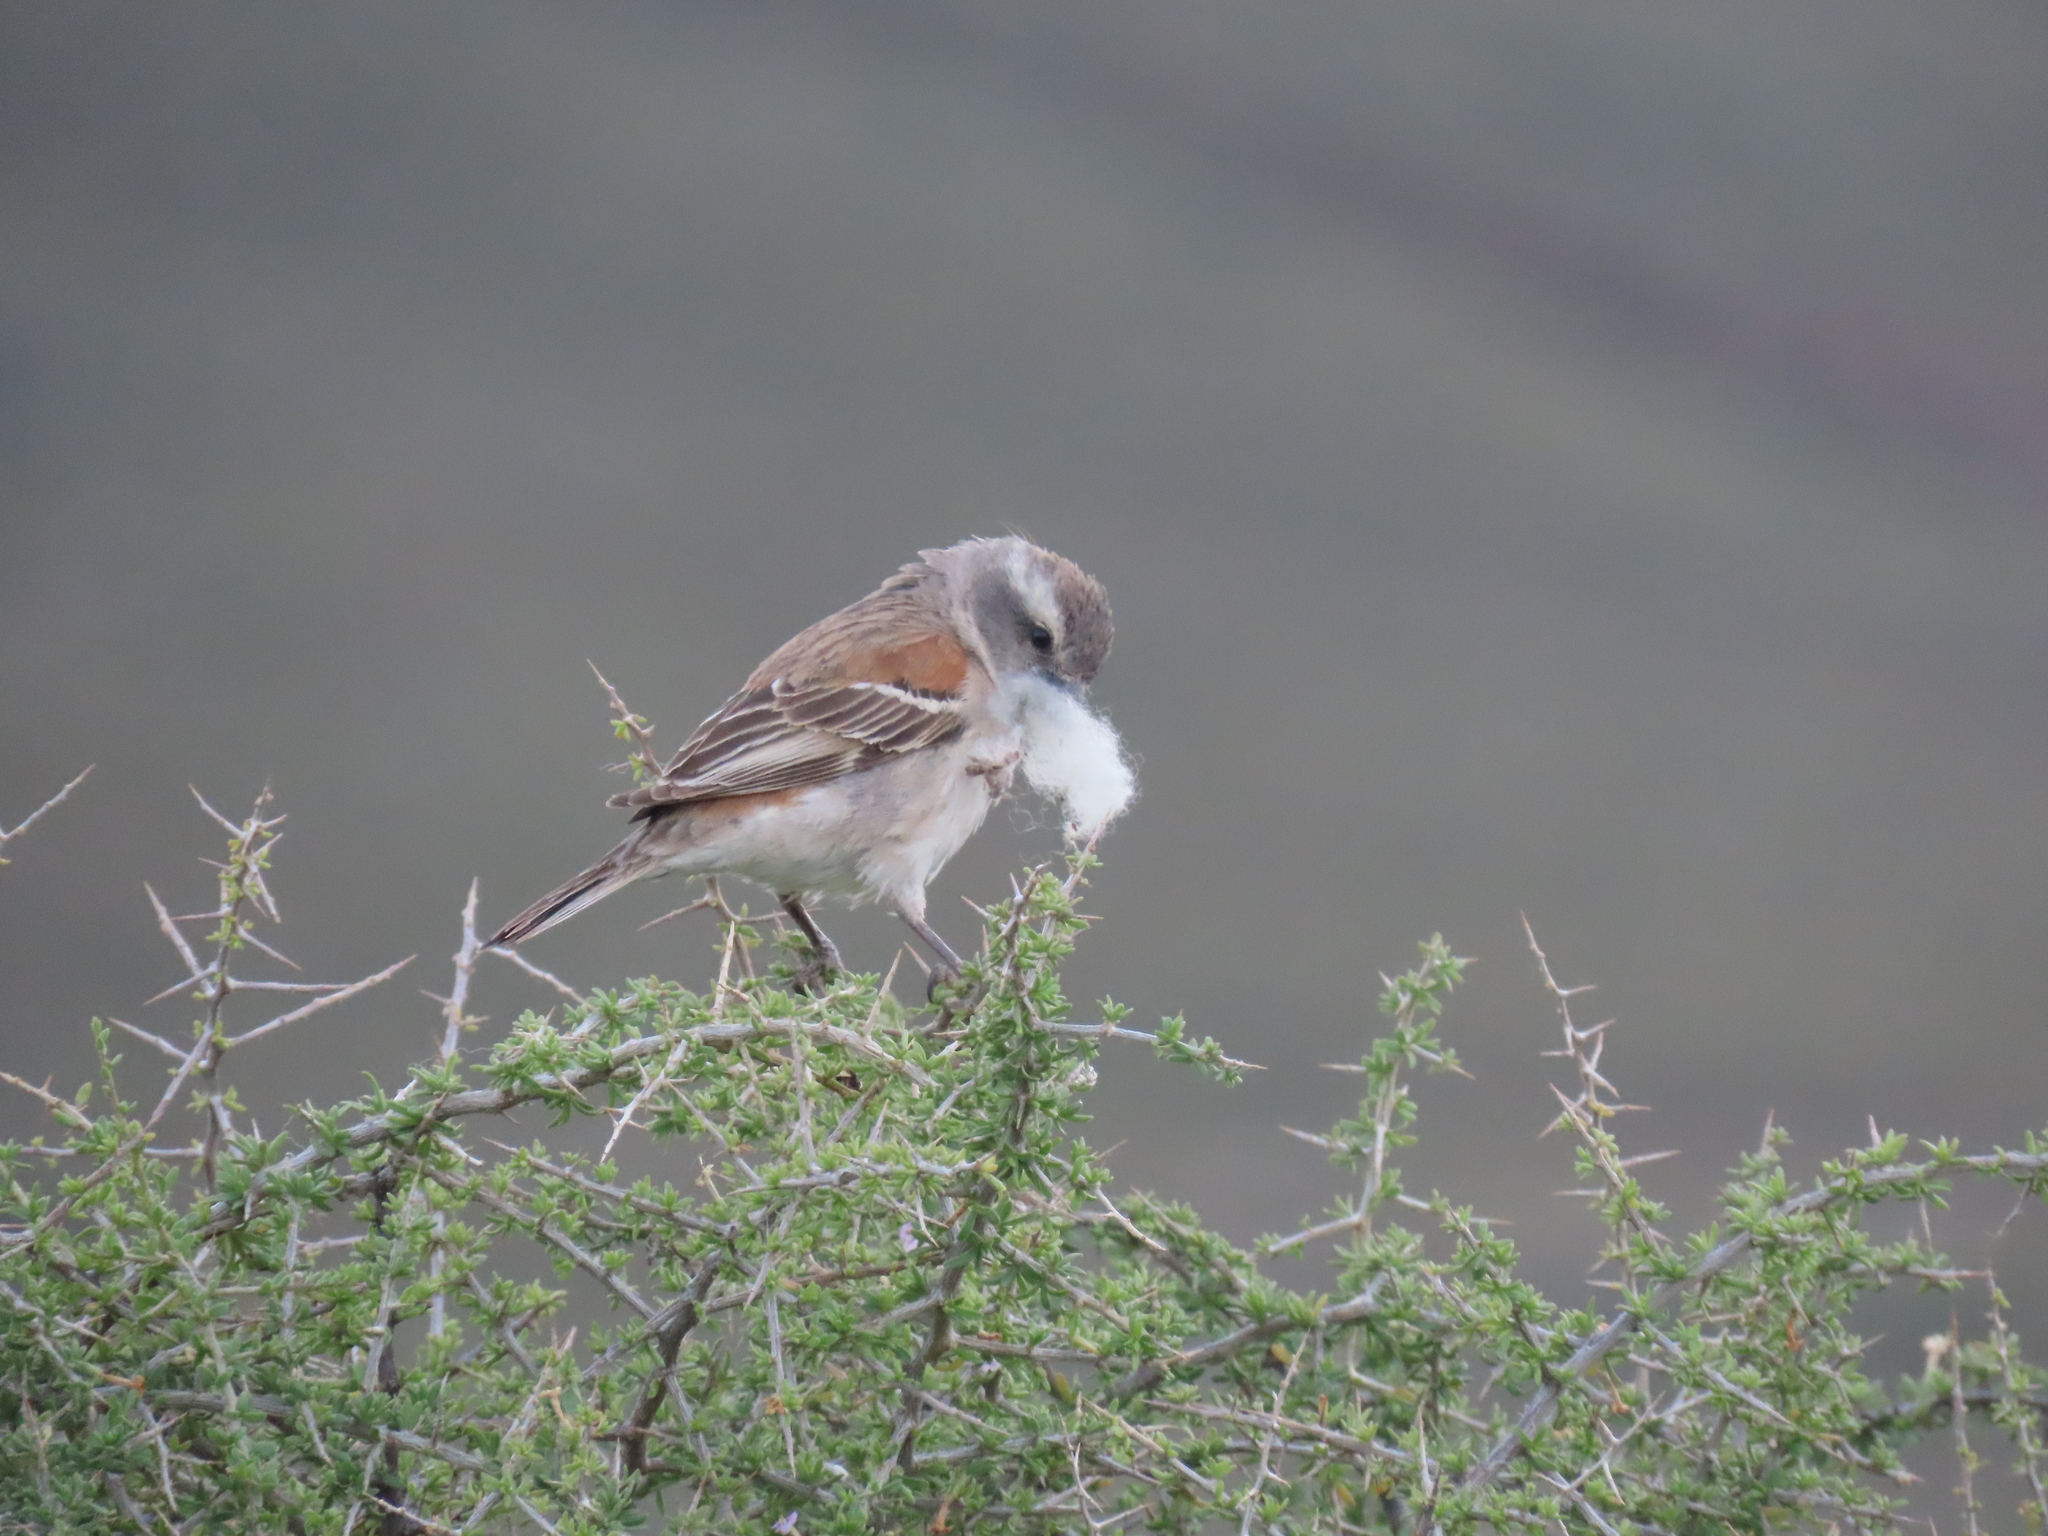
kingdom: Animalia
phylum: Chordata
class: Aves
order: Passeriformes
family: Passeridae
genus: Passer
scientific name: Passer melanurus
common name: Cape sparrow
